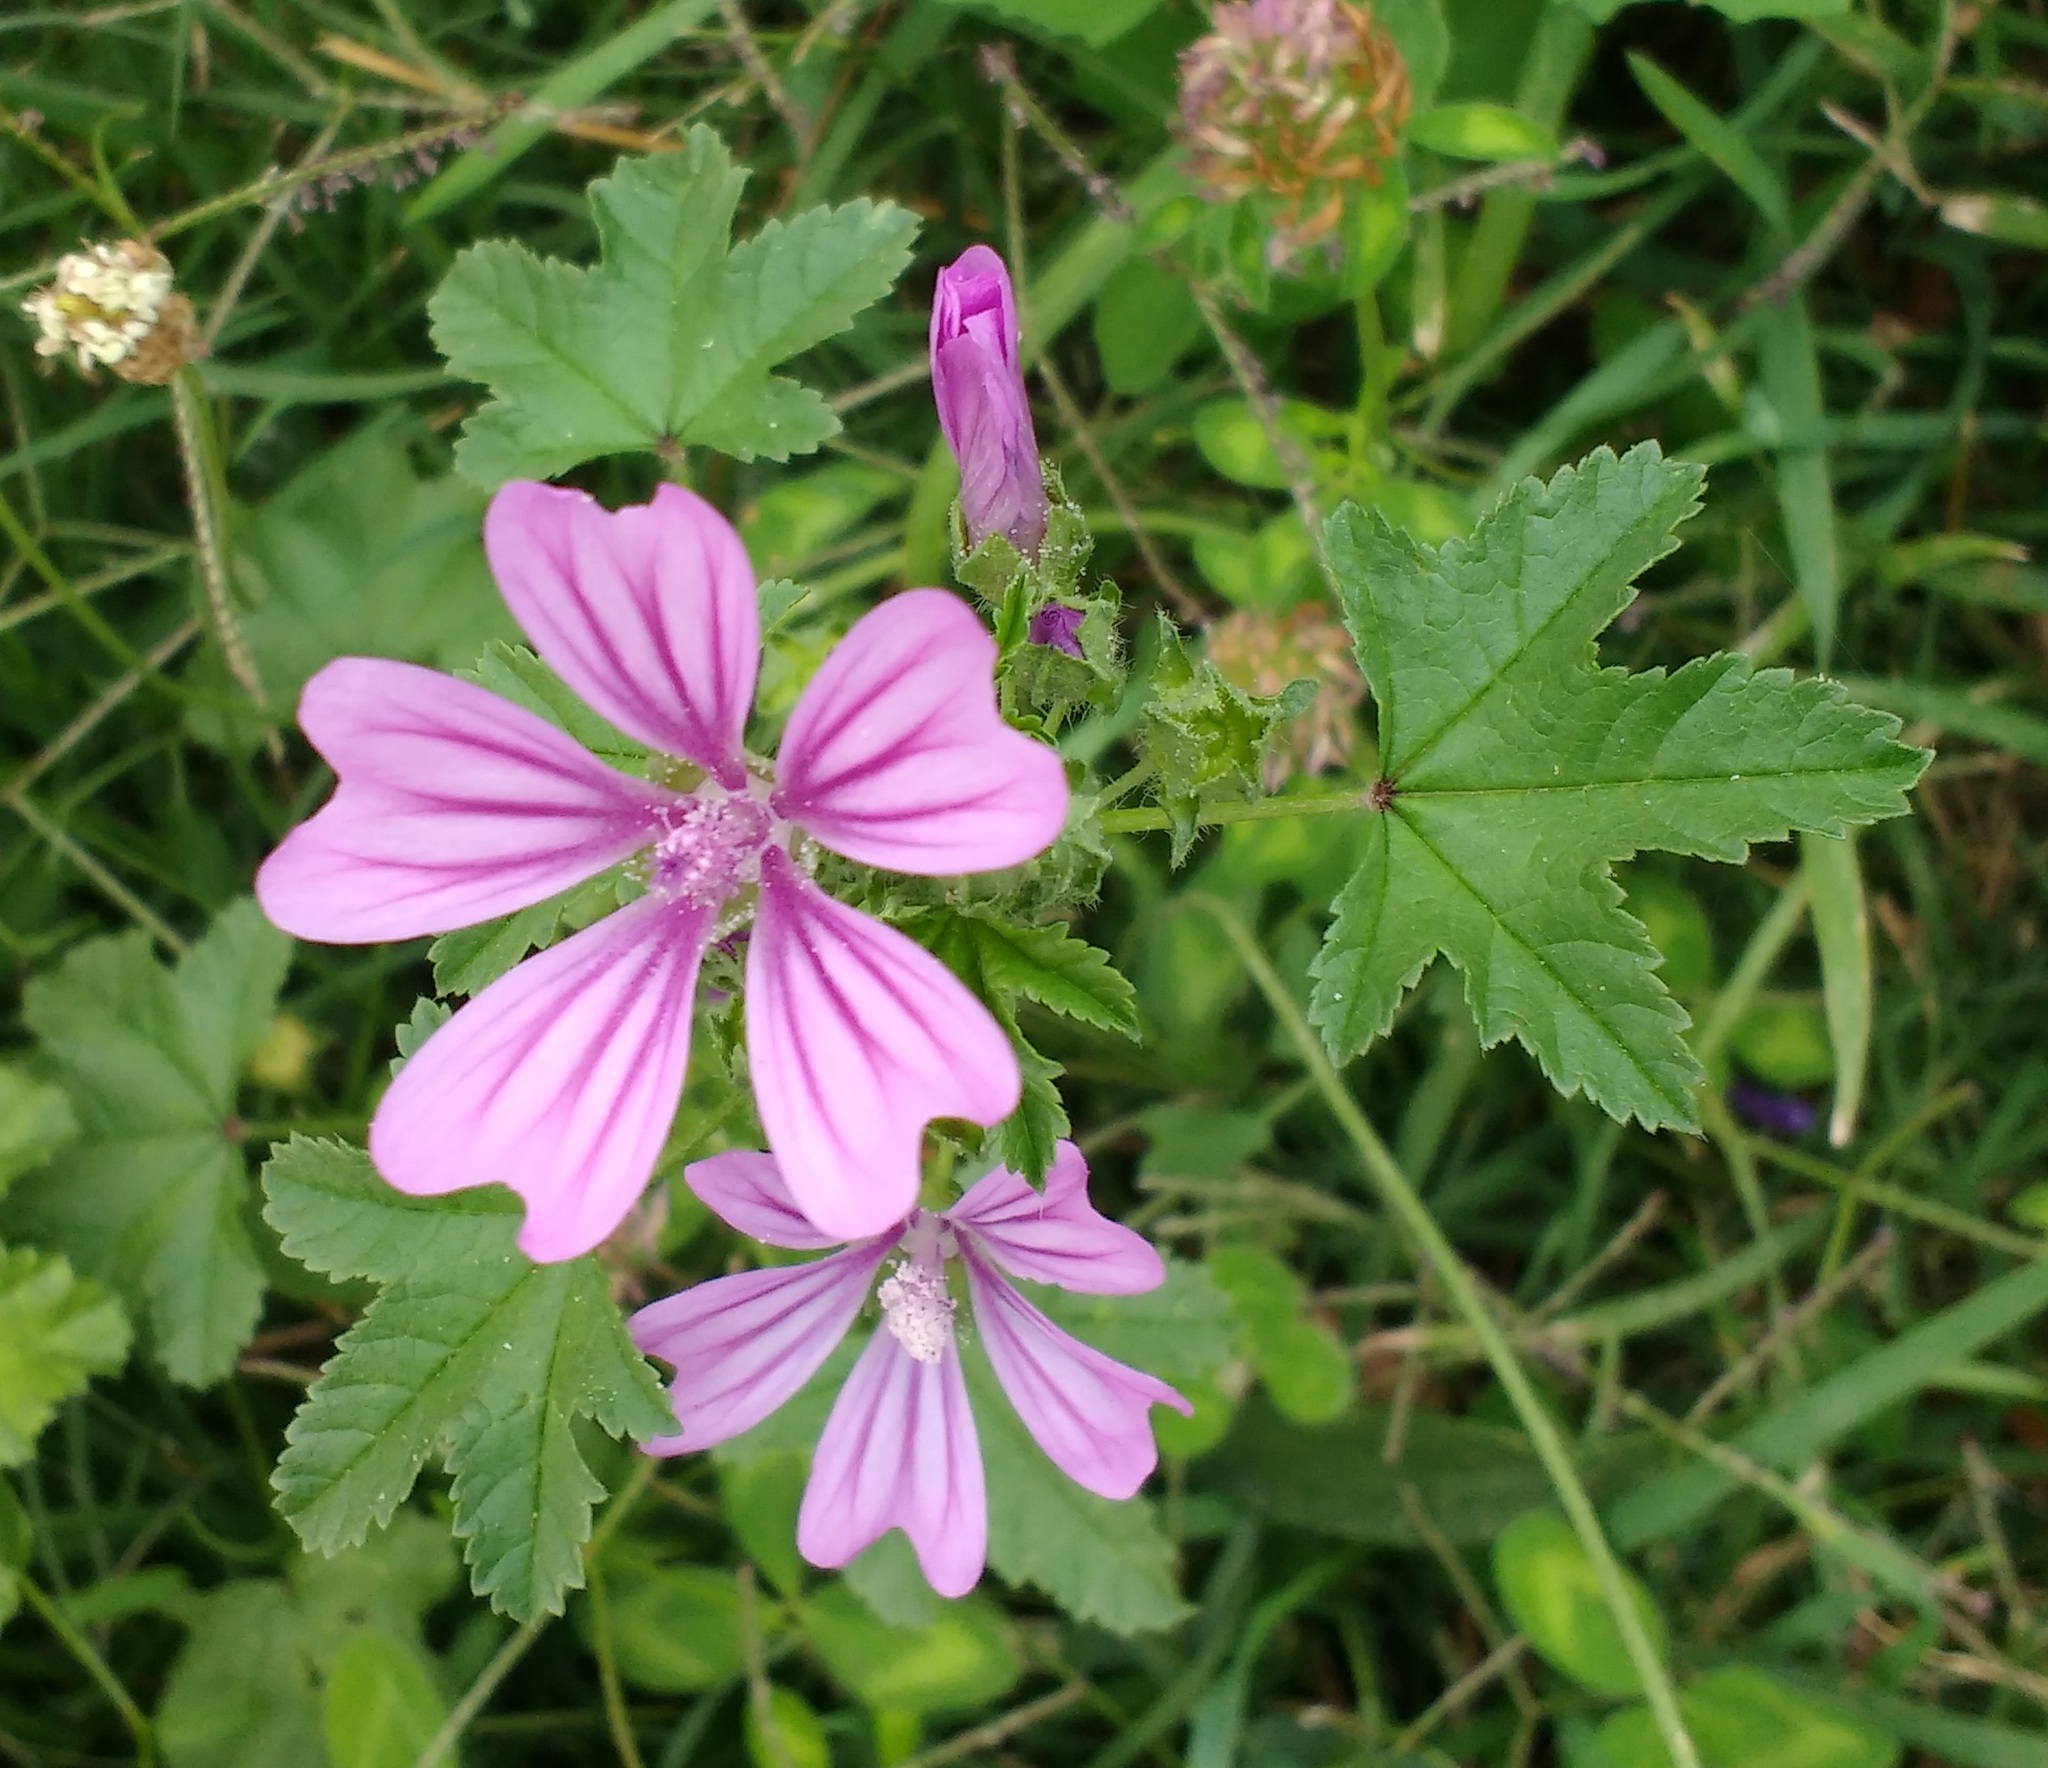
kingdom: Plantae
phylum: Tracheophyta
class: Magnoliopsida
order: Malvales
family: Malvaceae
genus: Malva
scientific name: Malva sylvestris
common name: Common mallow
